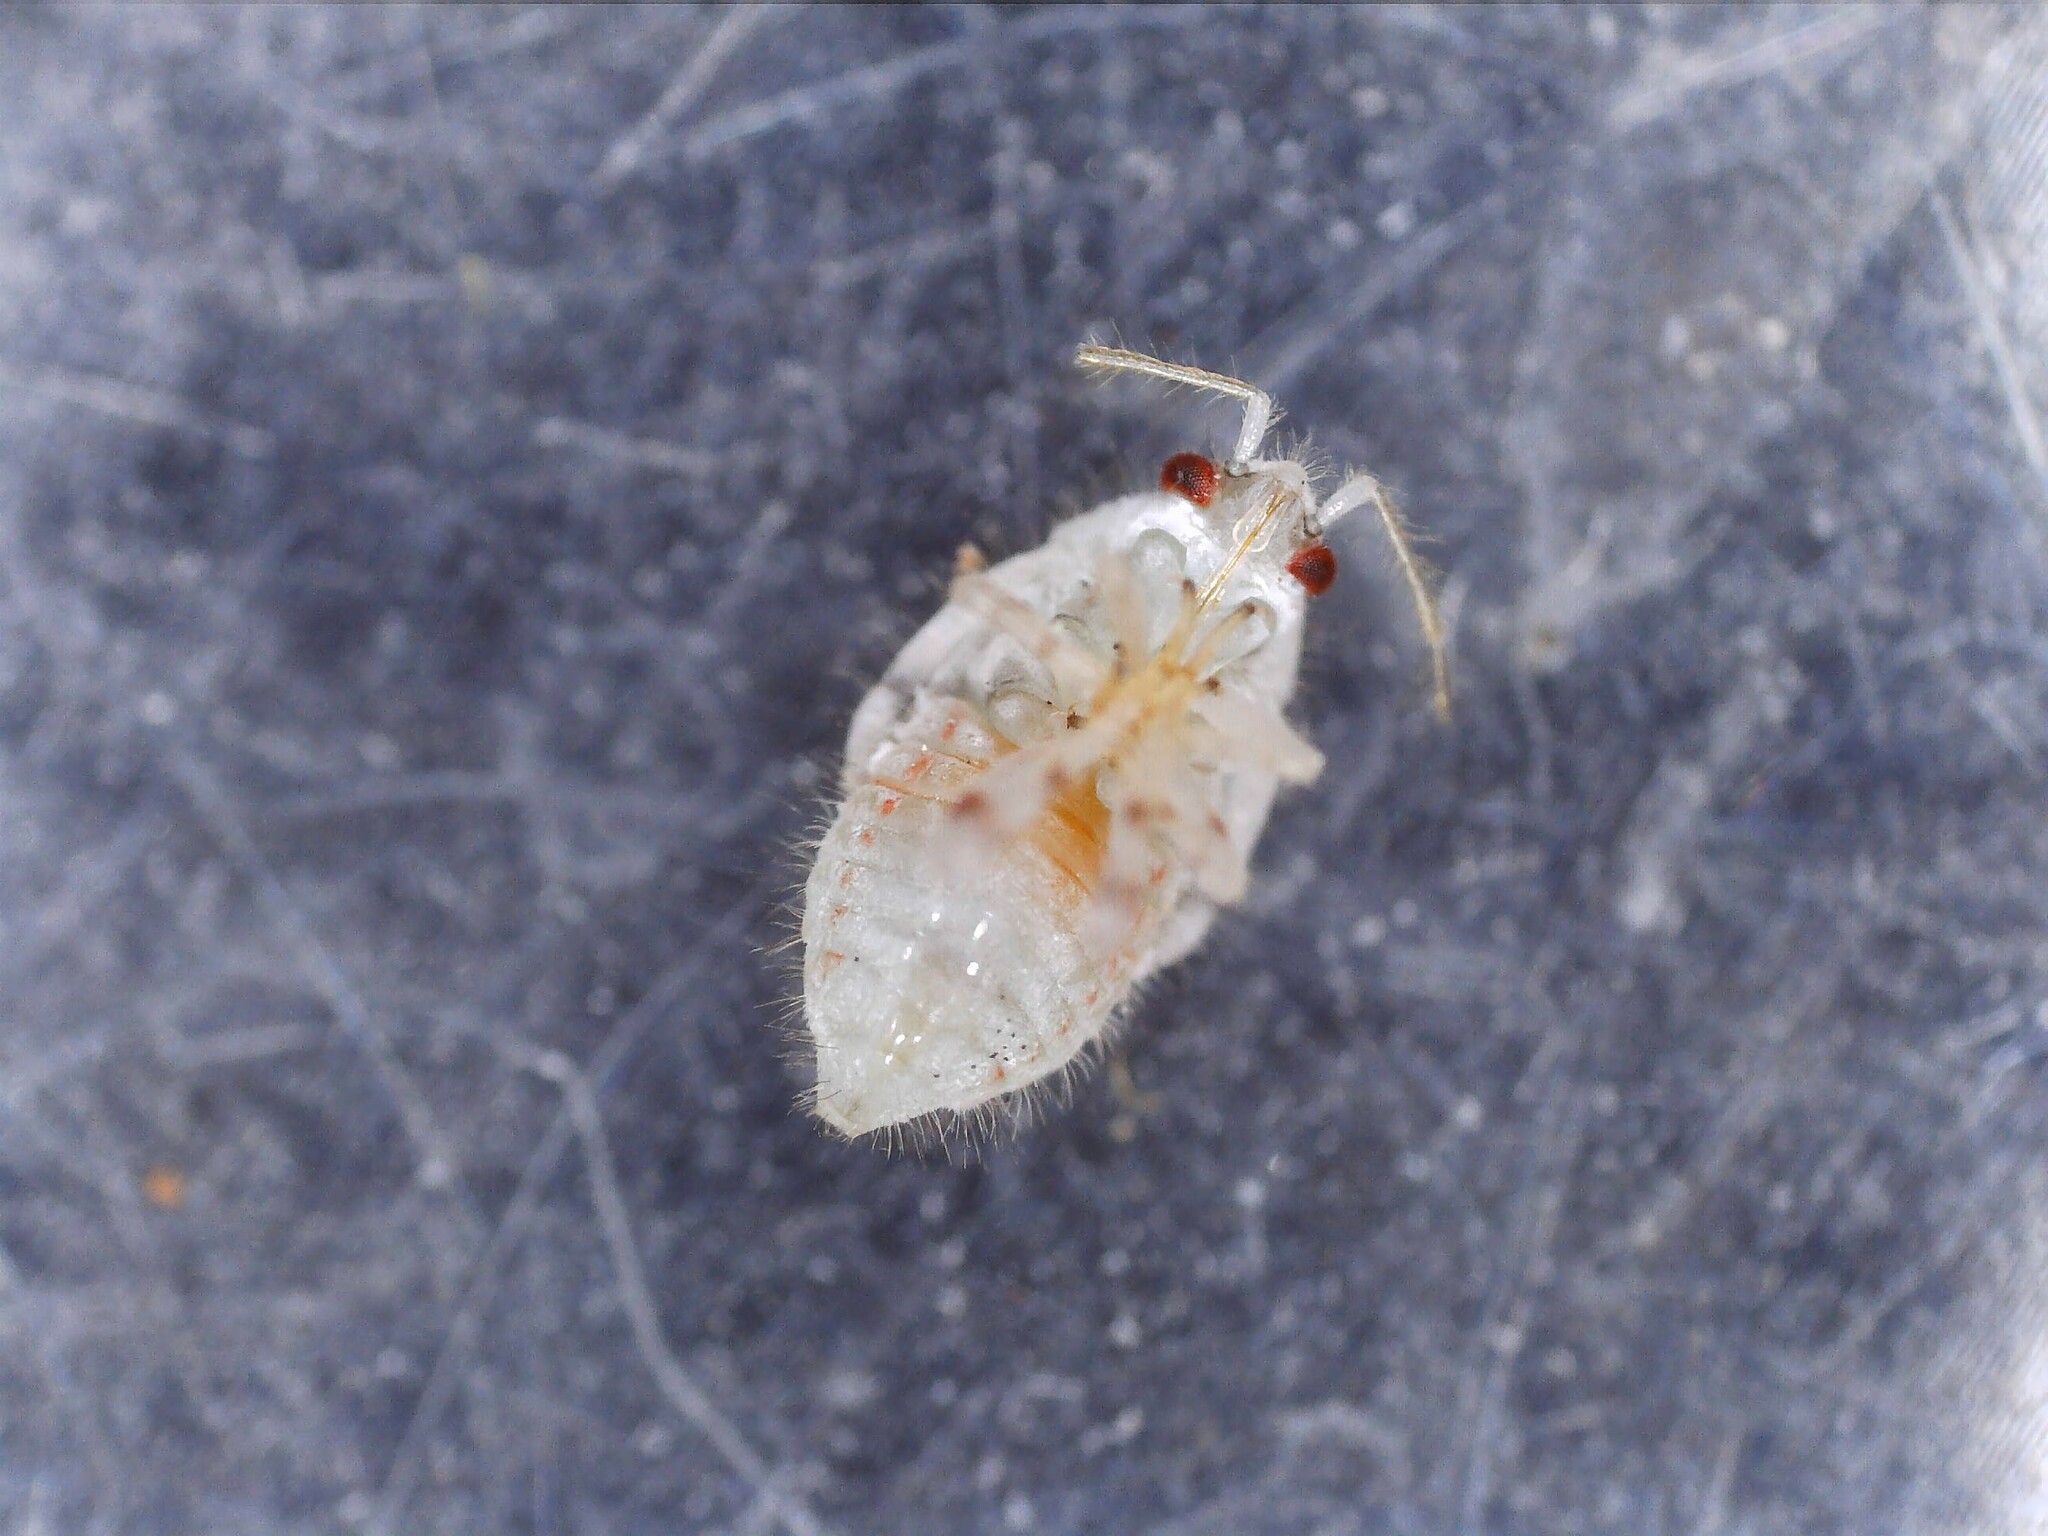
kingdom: Animalia
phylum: Arthropoda
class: Insecta
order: Hemiptera
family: Miridae
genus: Deraeocoris
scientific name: Deraeocoris lutescens
